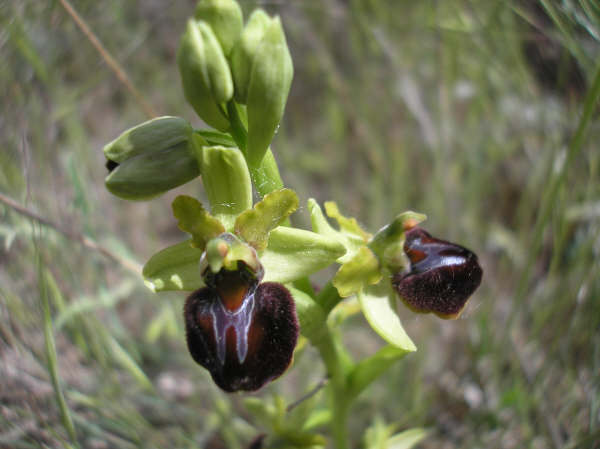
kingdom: Plantae
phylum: Tracheophyta
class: Liliopsida
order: Asparagales
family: Orchidaceae
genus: Ophrys
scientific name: Ophrys sphegodes
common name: Early spider-orchid
